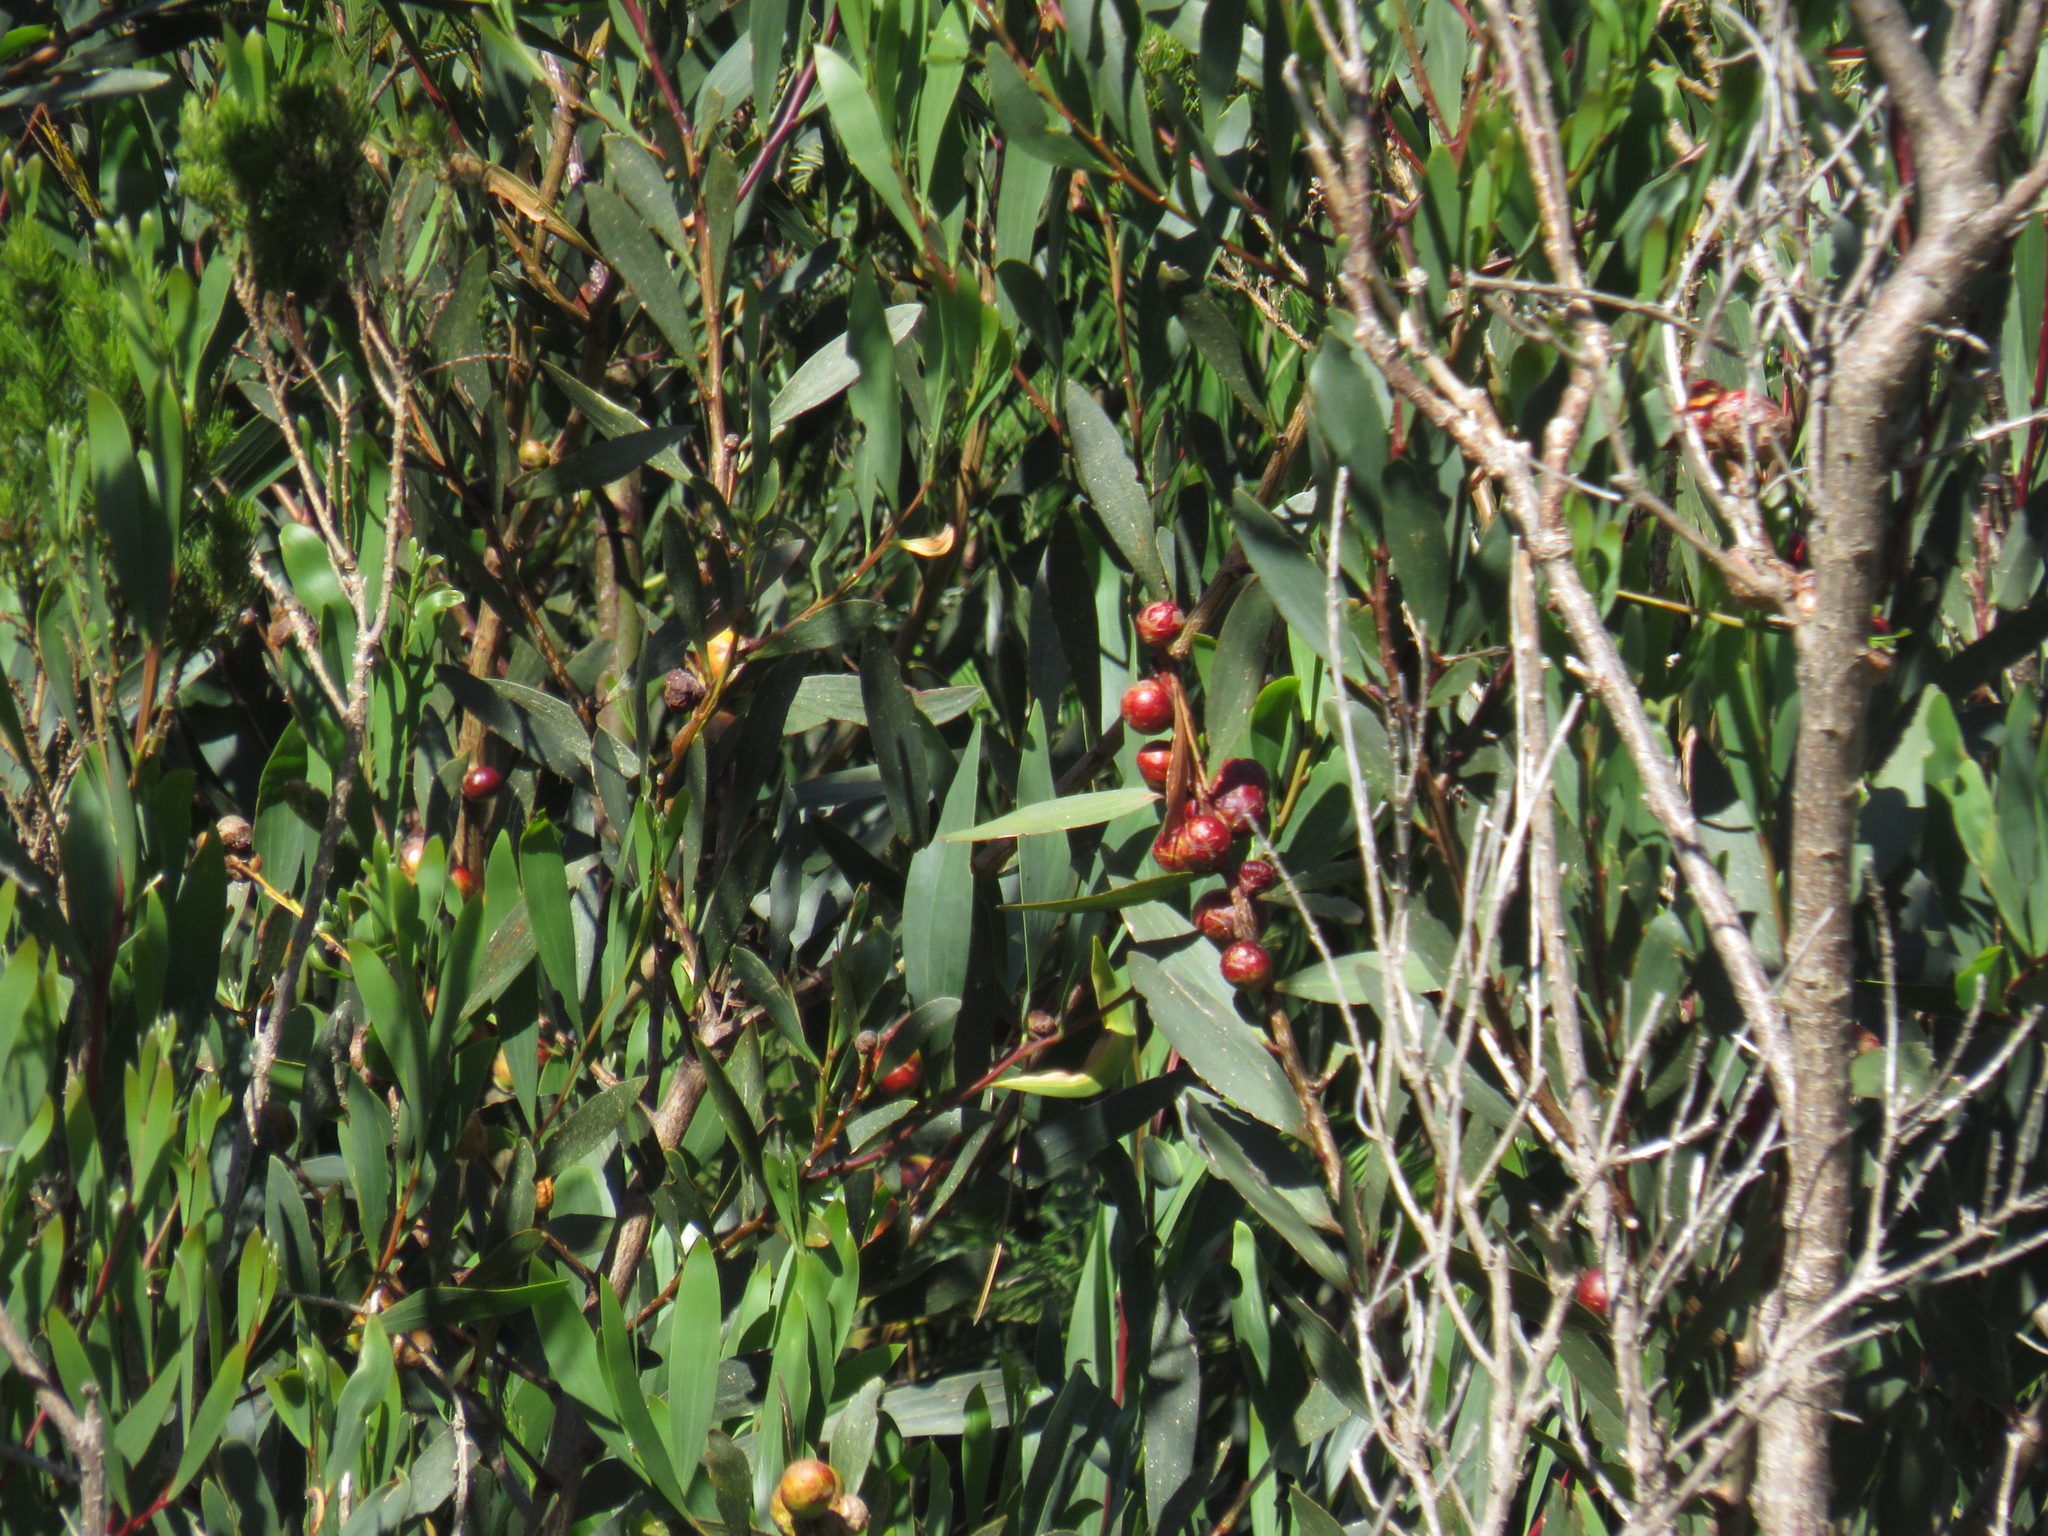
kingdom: Animalia
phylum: Arthropoda
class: Insecta
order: Hymenoptera
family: Pteromalidae
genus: Trichilogaster
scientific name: Trichilogaster acaciaelongifoliae
